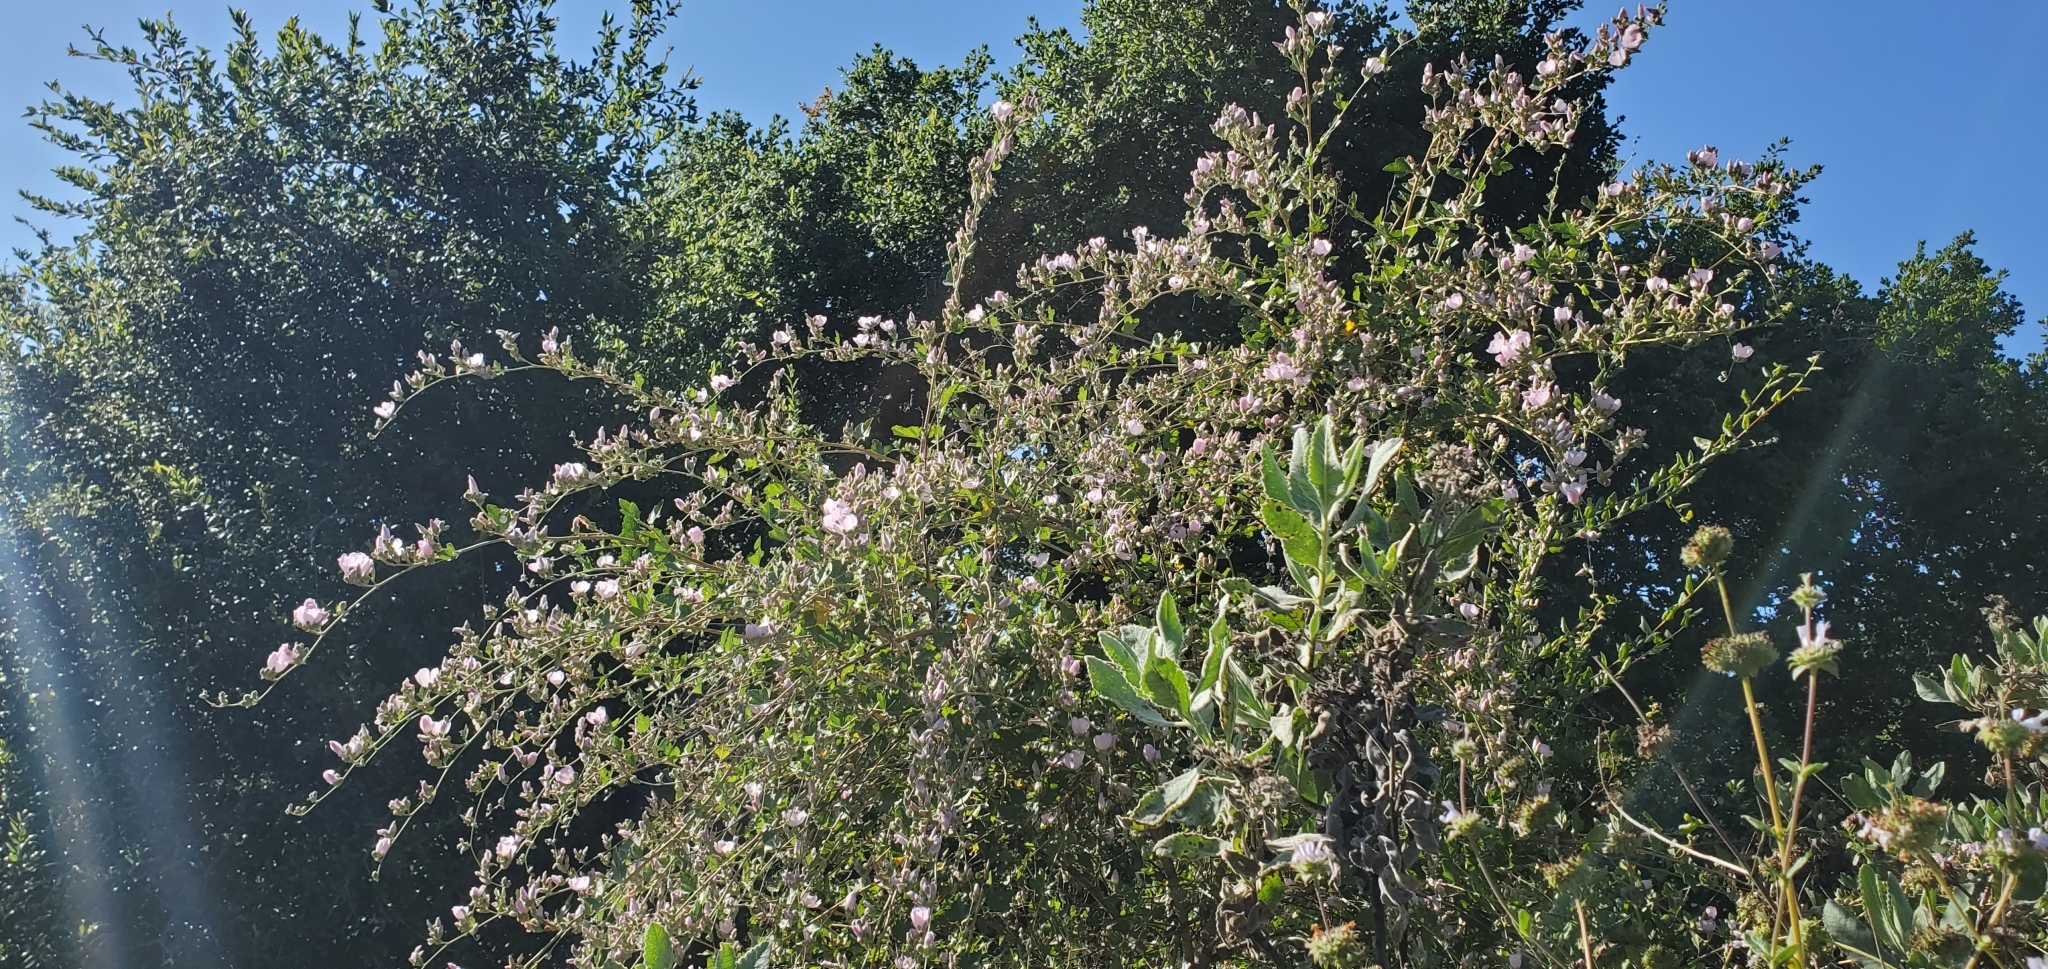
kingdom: Plantae
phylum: Tracheophyta
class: Magnoliopsida
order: Malvales
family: Malvaceae
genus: Malacothamnus
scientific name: Malacothamnus fasciculatus
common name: Sant cruz island bush-mallow
